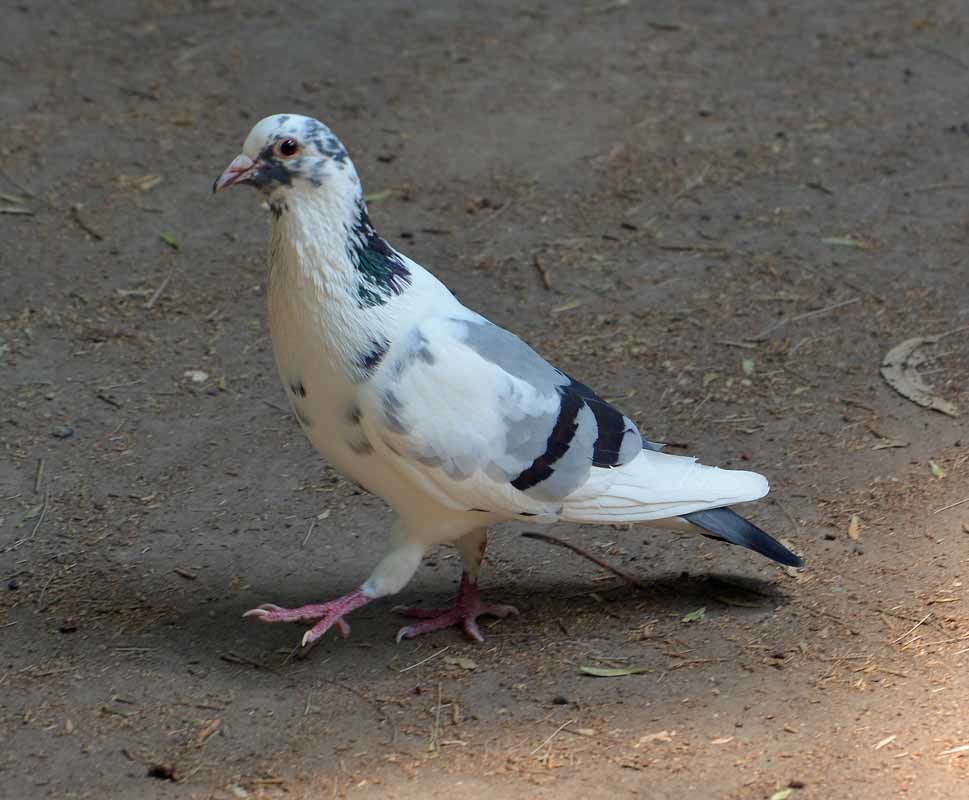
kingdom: Animalia
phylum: Chordata
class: Aves
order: Columbiformes
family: Columbidae
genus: Columba
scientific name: Columba livia
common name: Rock pigeon
